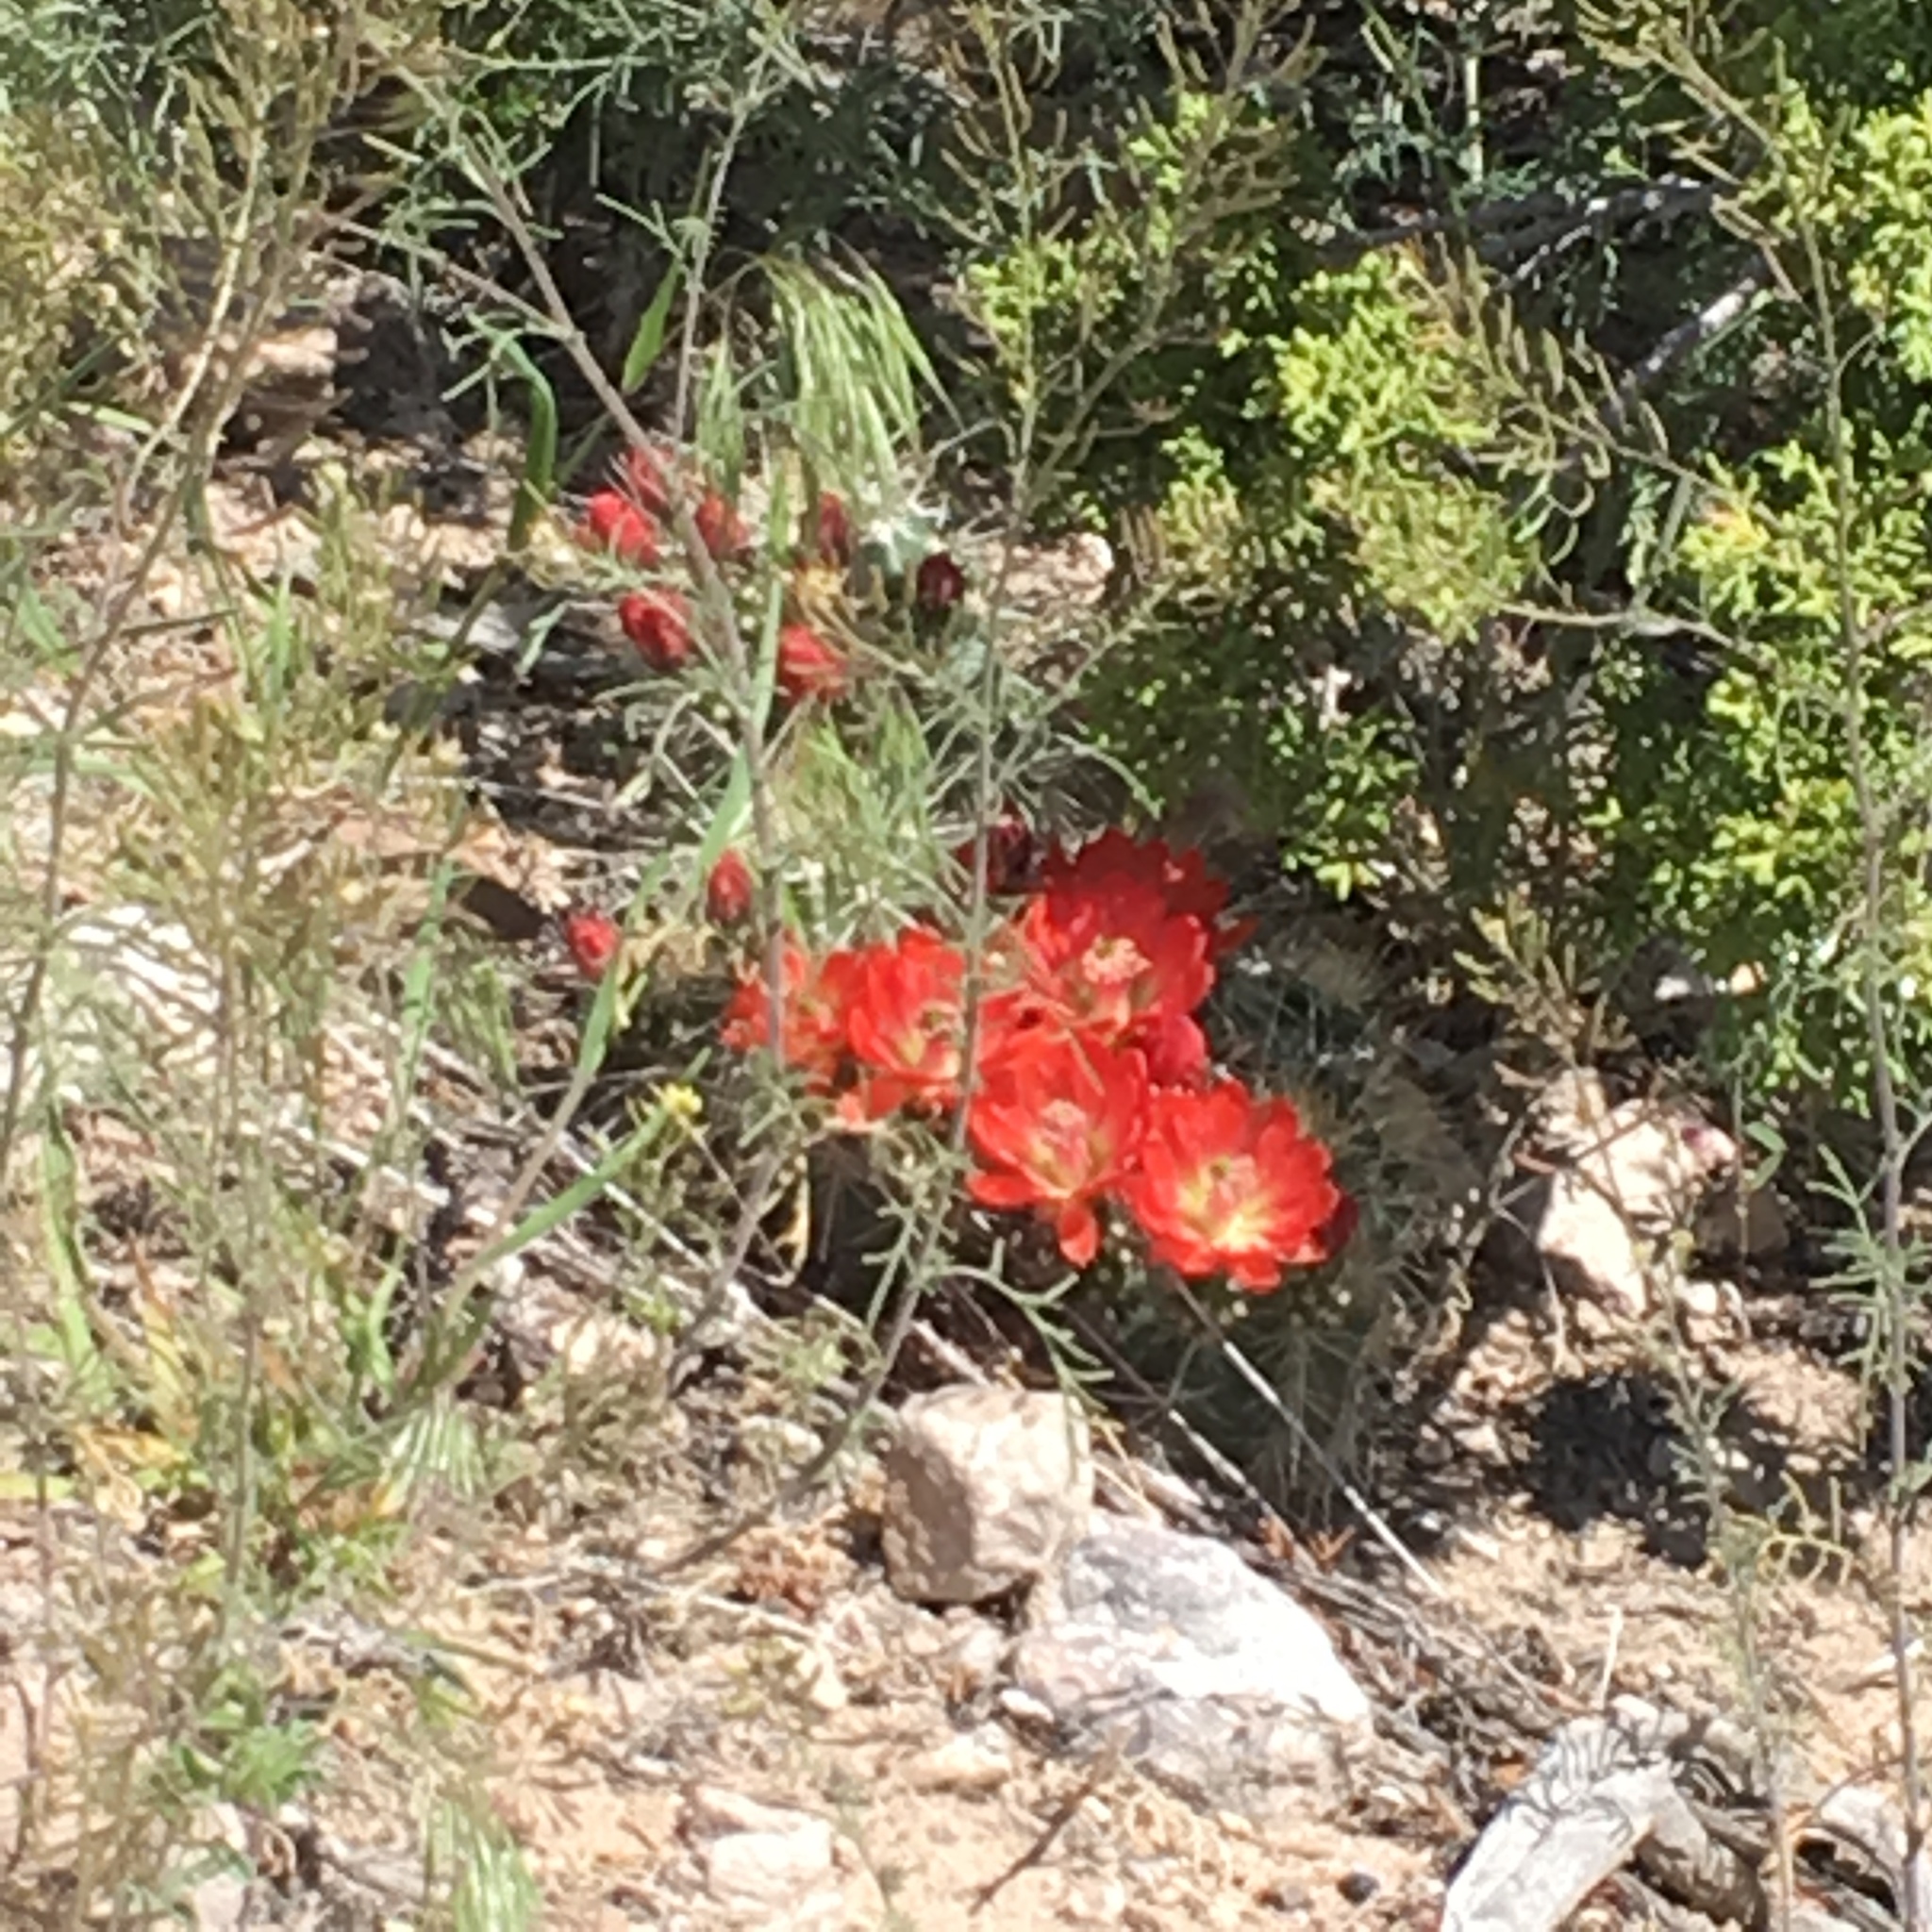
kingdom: Plantae
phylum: Tracheophyta
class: Magnoliopsida
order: Caryophyllales
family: Cactaceae
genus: Echinocereus
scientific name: Echinocereus coccineus
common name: Scarlet hedgehog cactus
